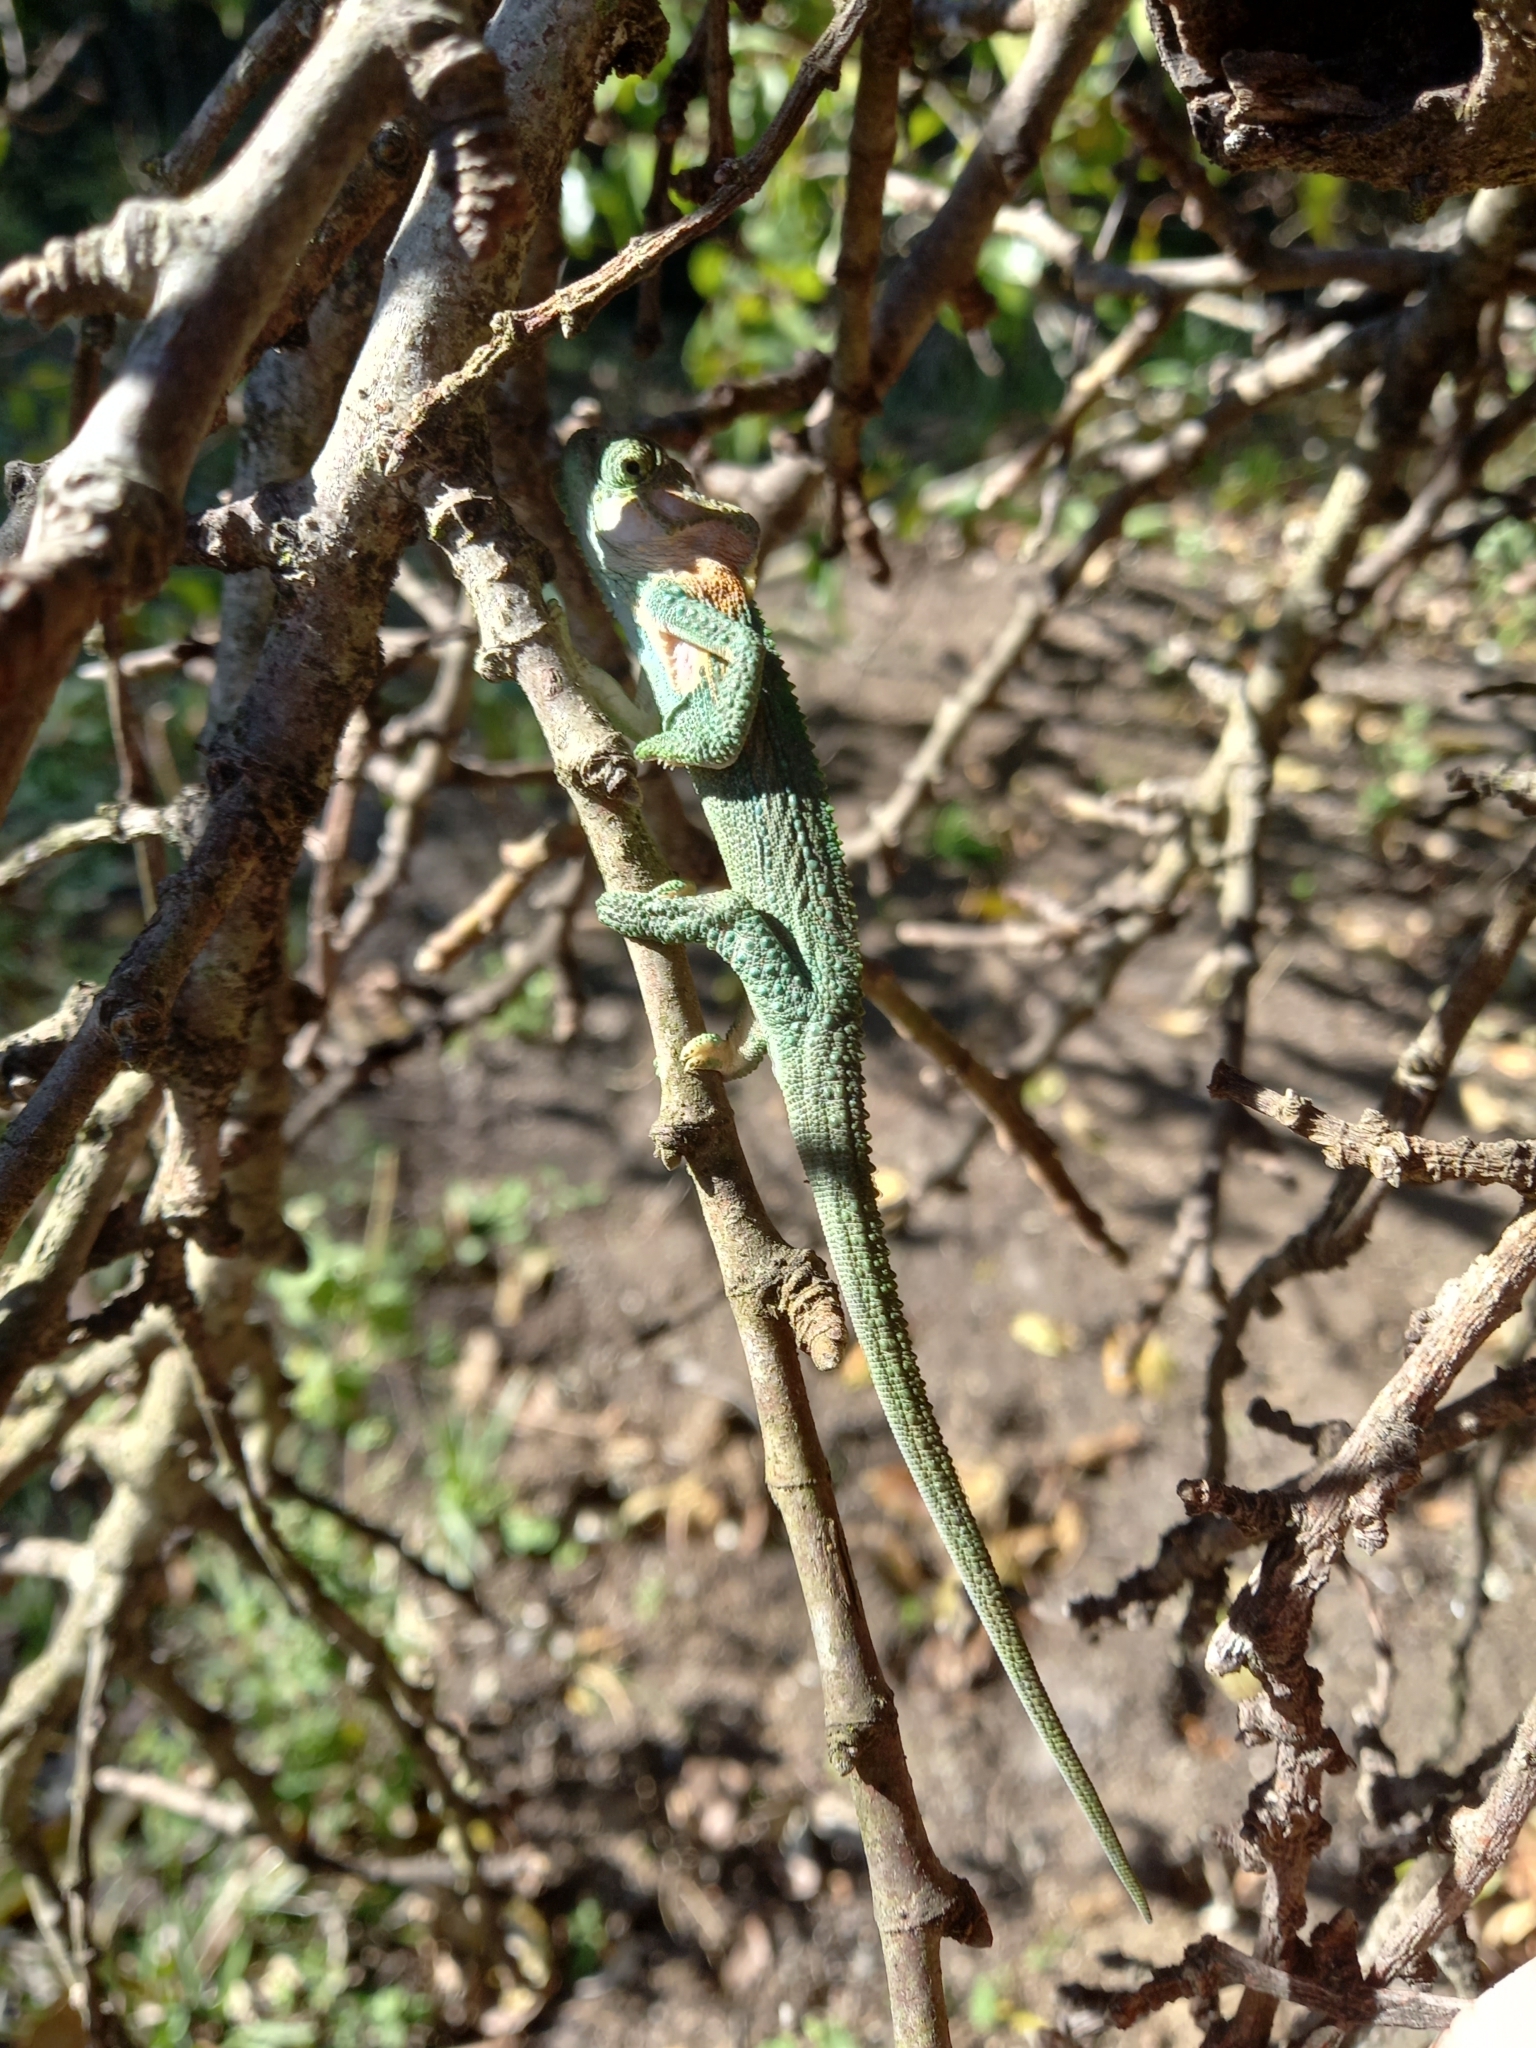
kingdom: Animalia
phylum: Chordata
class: Squamata
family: Chamaeleonidae
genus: Bradypodion
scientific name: Bradypodion damaranum
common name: Knysna dwarf chameleon
